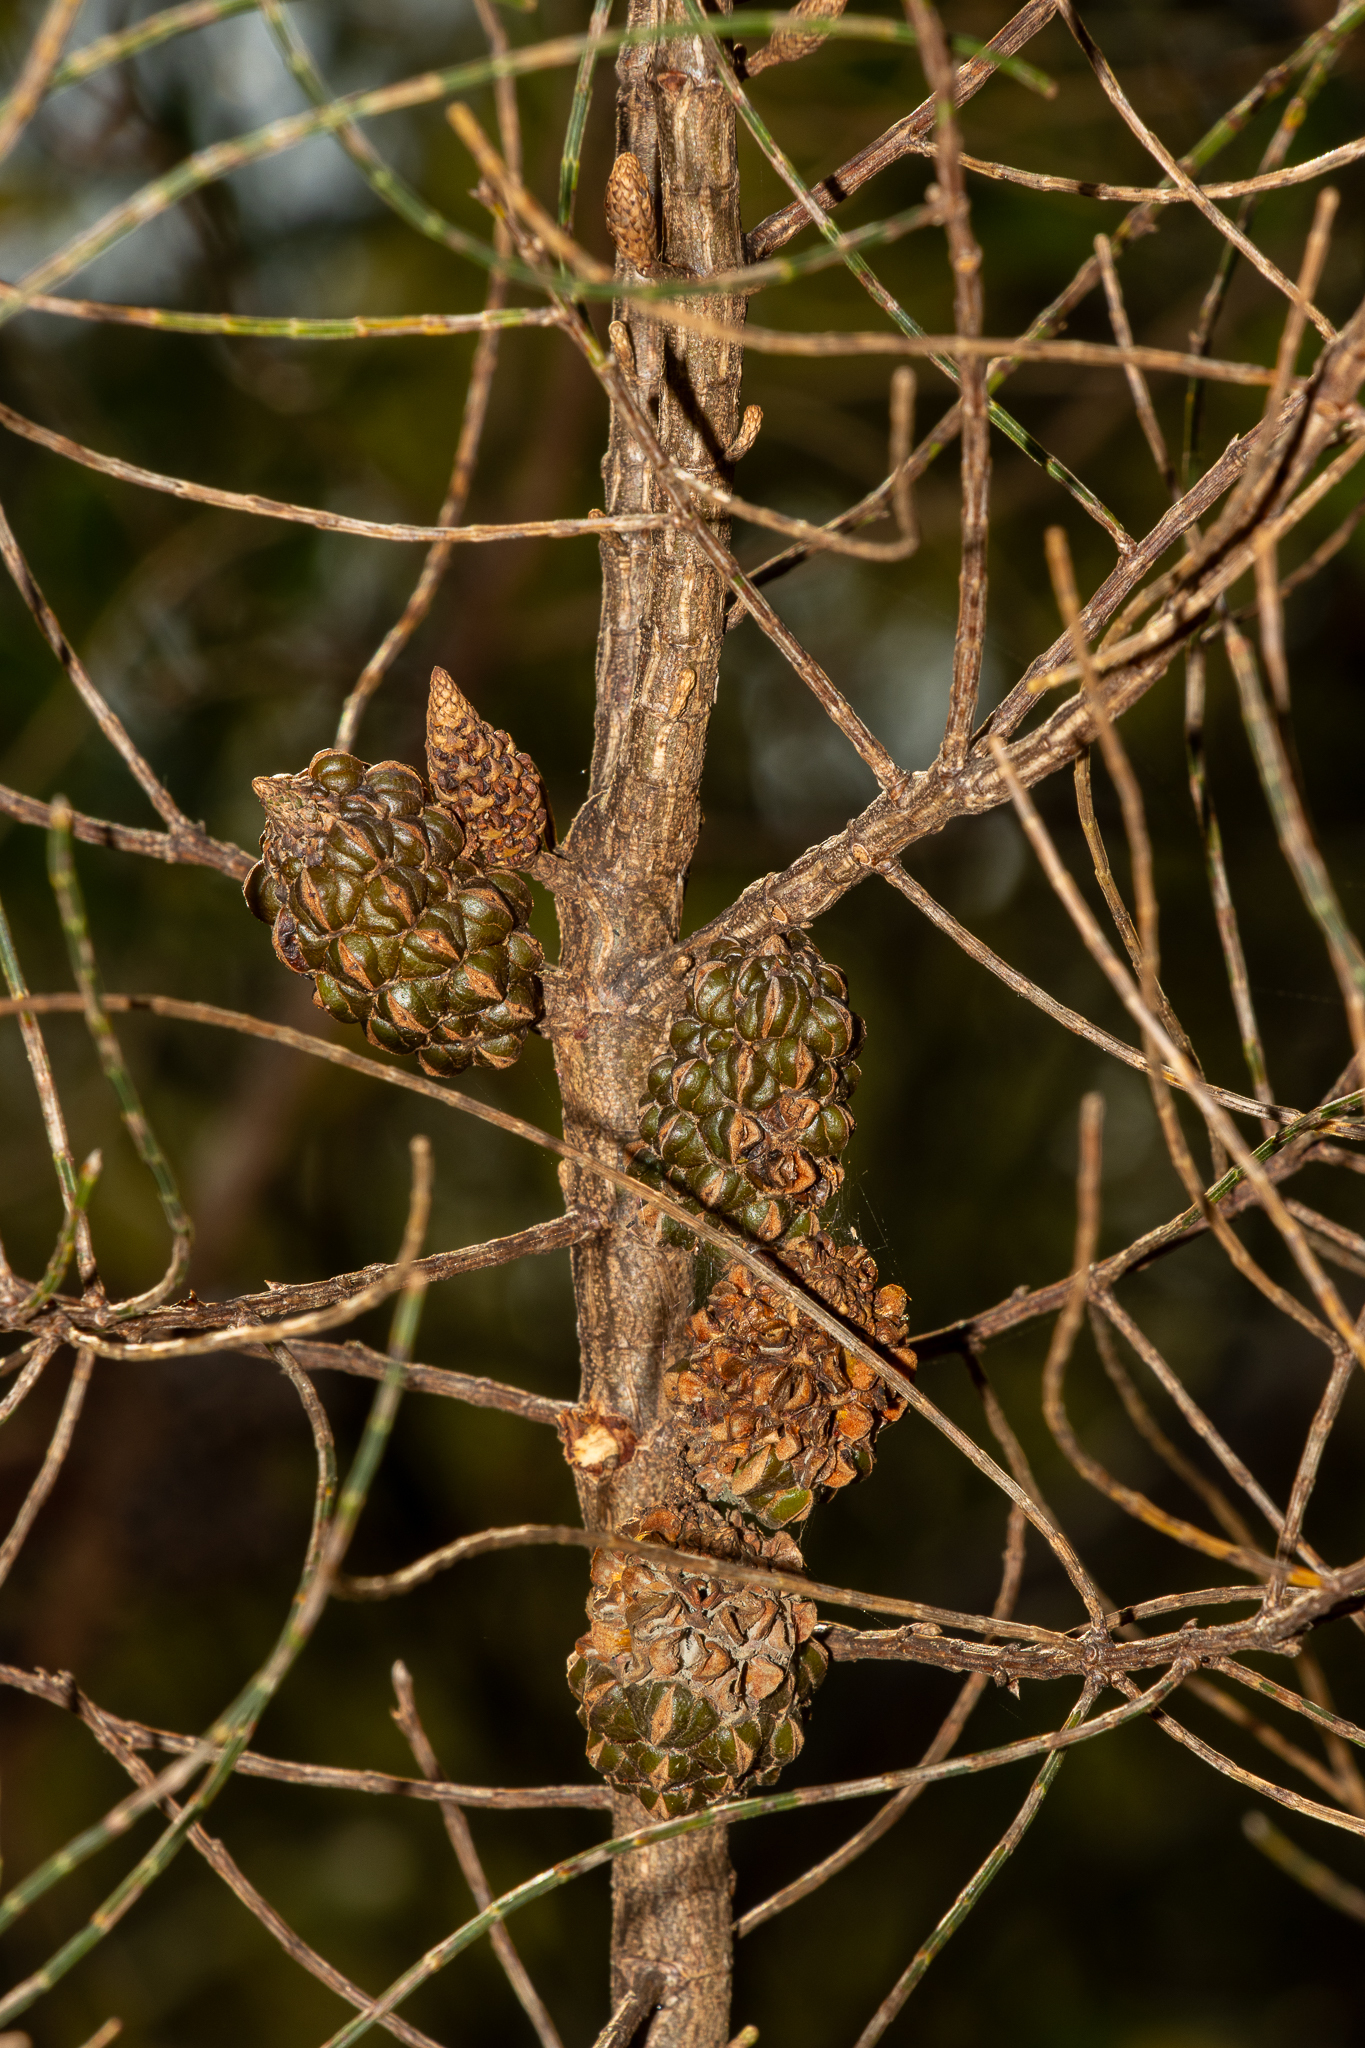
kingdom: Plantae
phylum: Tracheophyta
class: Magnoliopsida
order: Fagales
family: Casuarinaceae
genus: Allocasuarina
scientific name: Allocasuarina muelleriana
